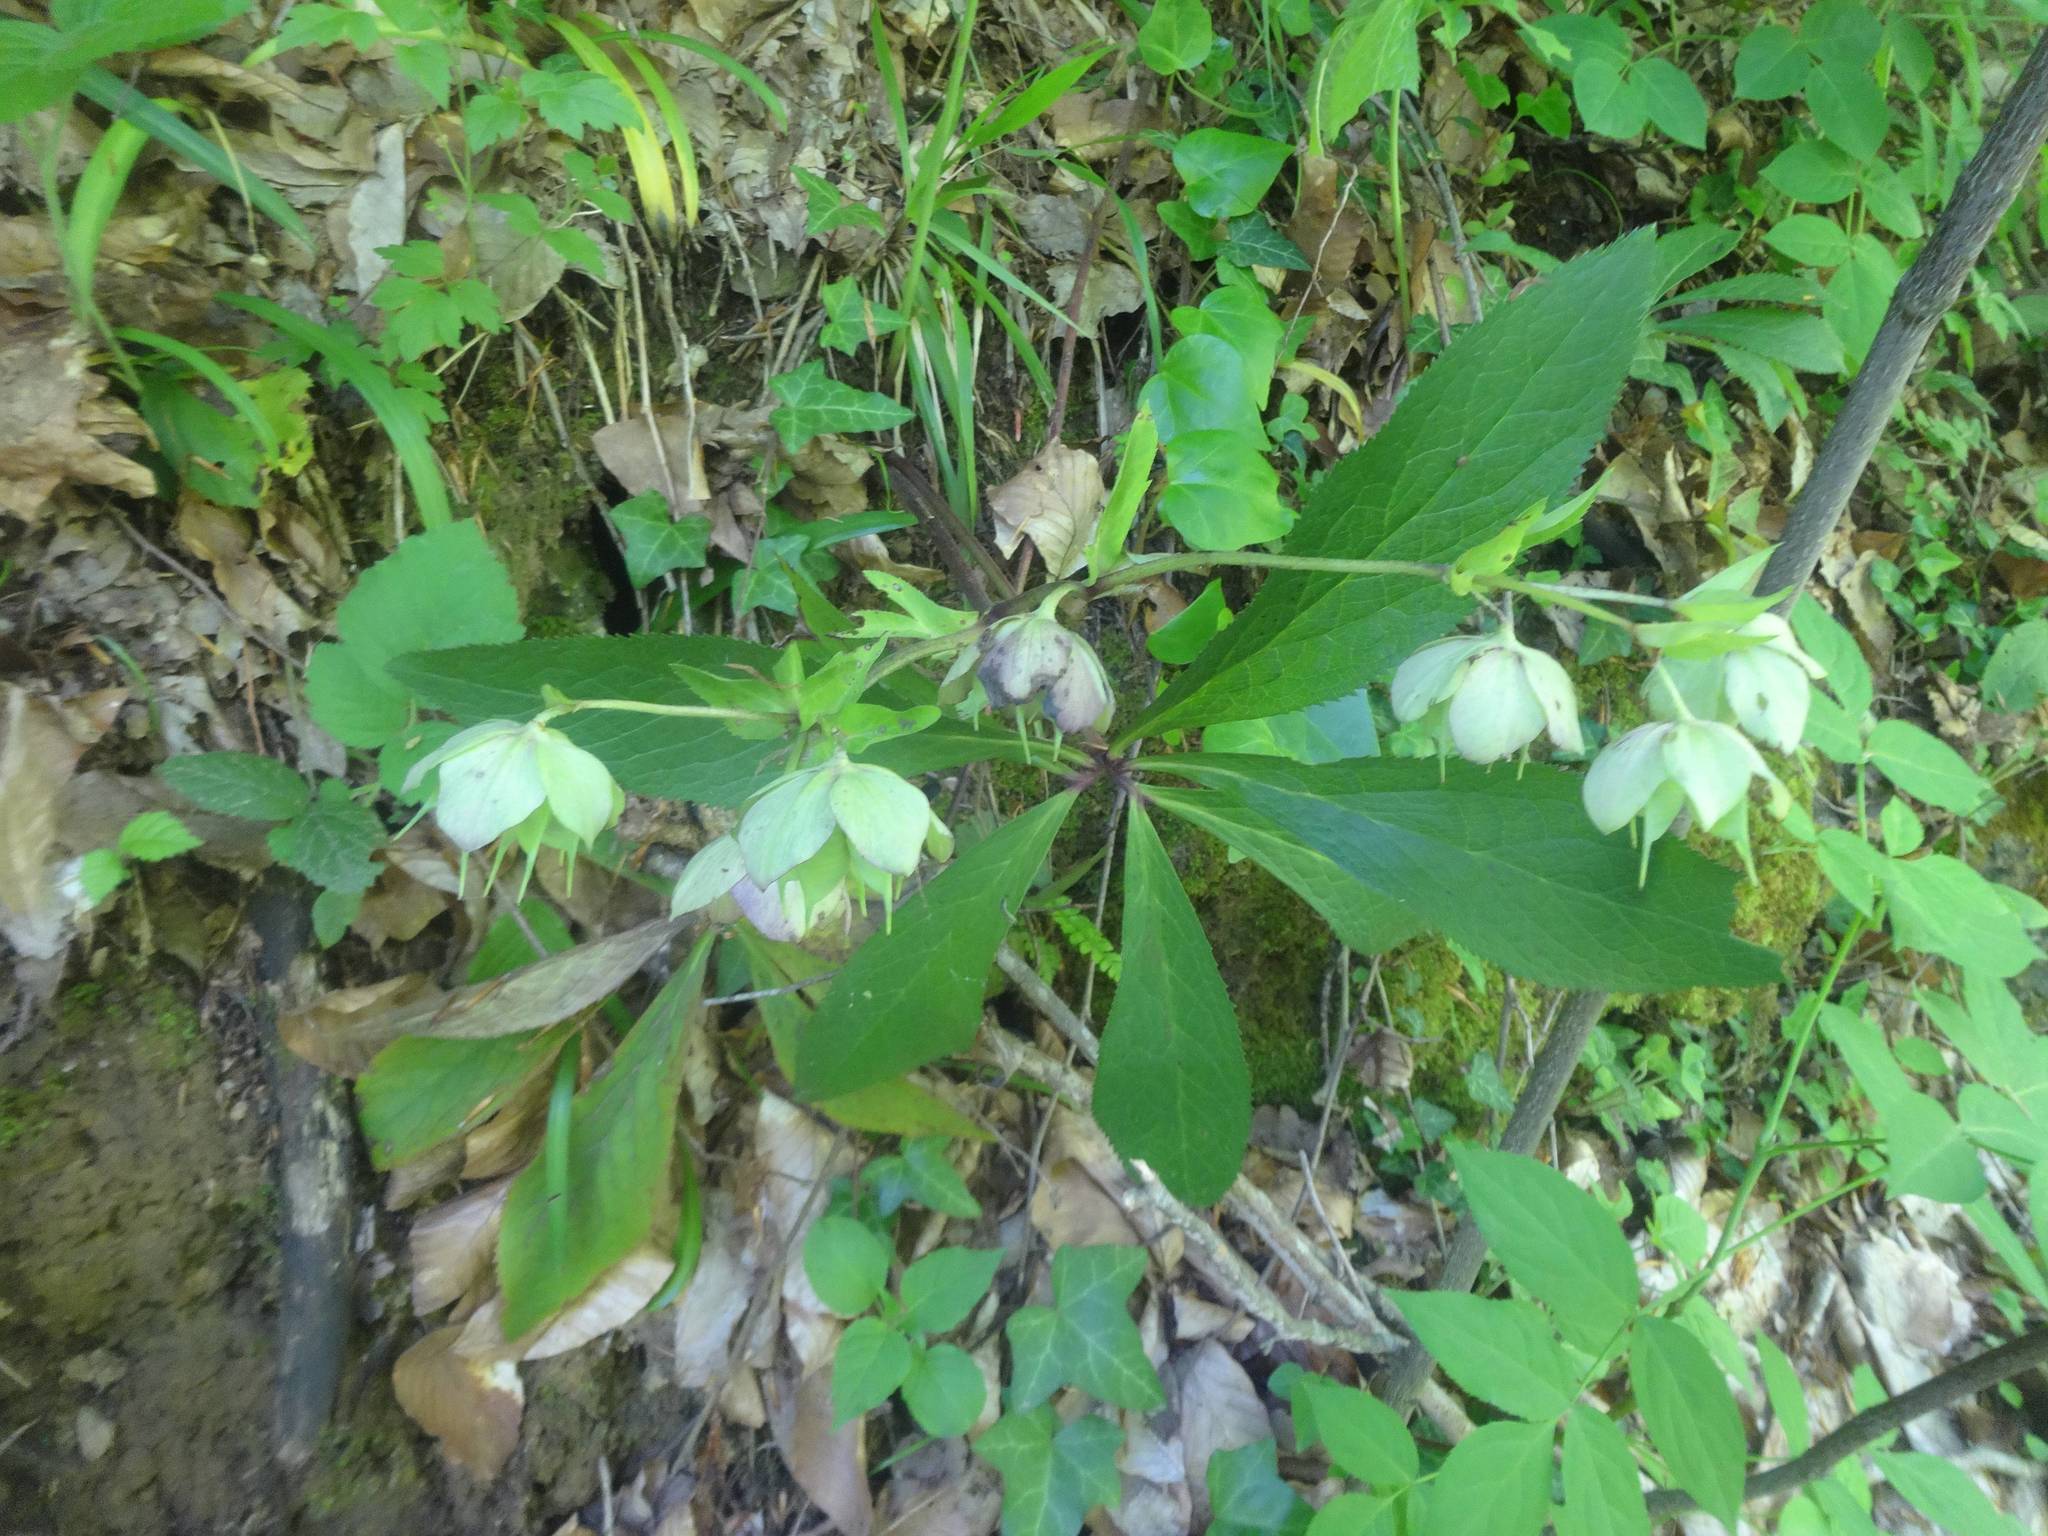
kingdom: Plantae
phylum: Tracheophyta
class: Magnoliopsida
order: Ranunculales
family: Ranunculaceae
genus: Helleborus
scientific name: Helleborus orientalis
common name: Lenten-rose
